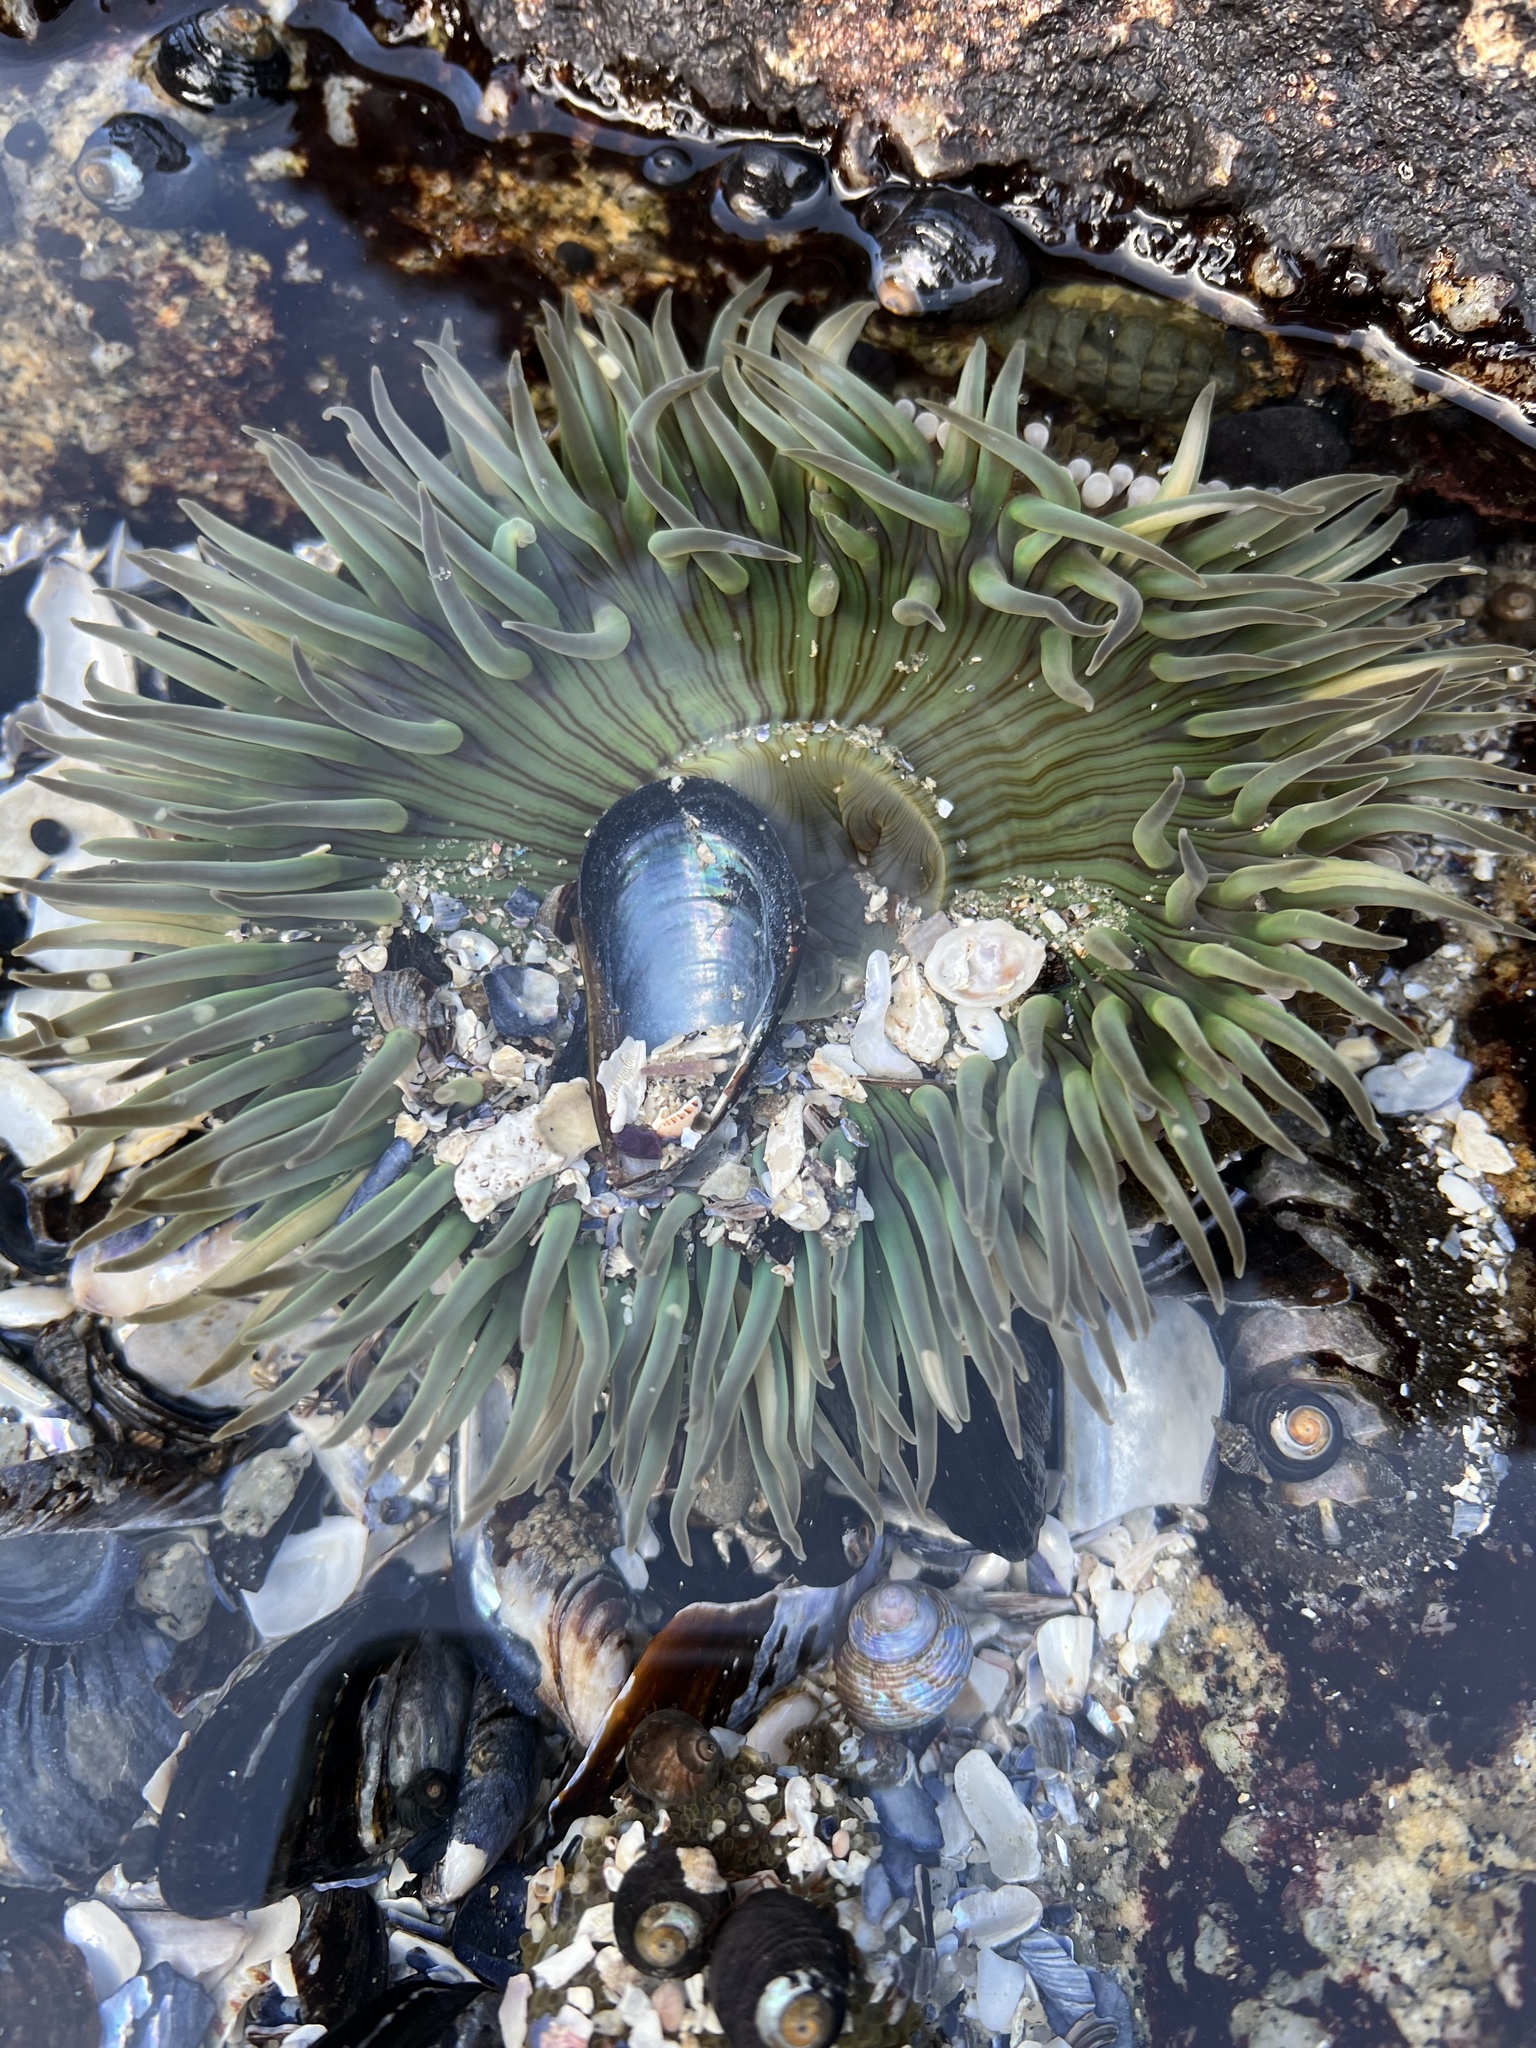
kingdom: Animalia
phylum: Cnidaria
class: Anthozoa
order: Actiniaria
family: Actiniidae
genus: Anthopleura
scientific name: Anthopleura sola
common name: Sun anemone
